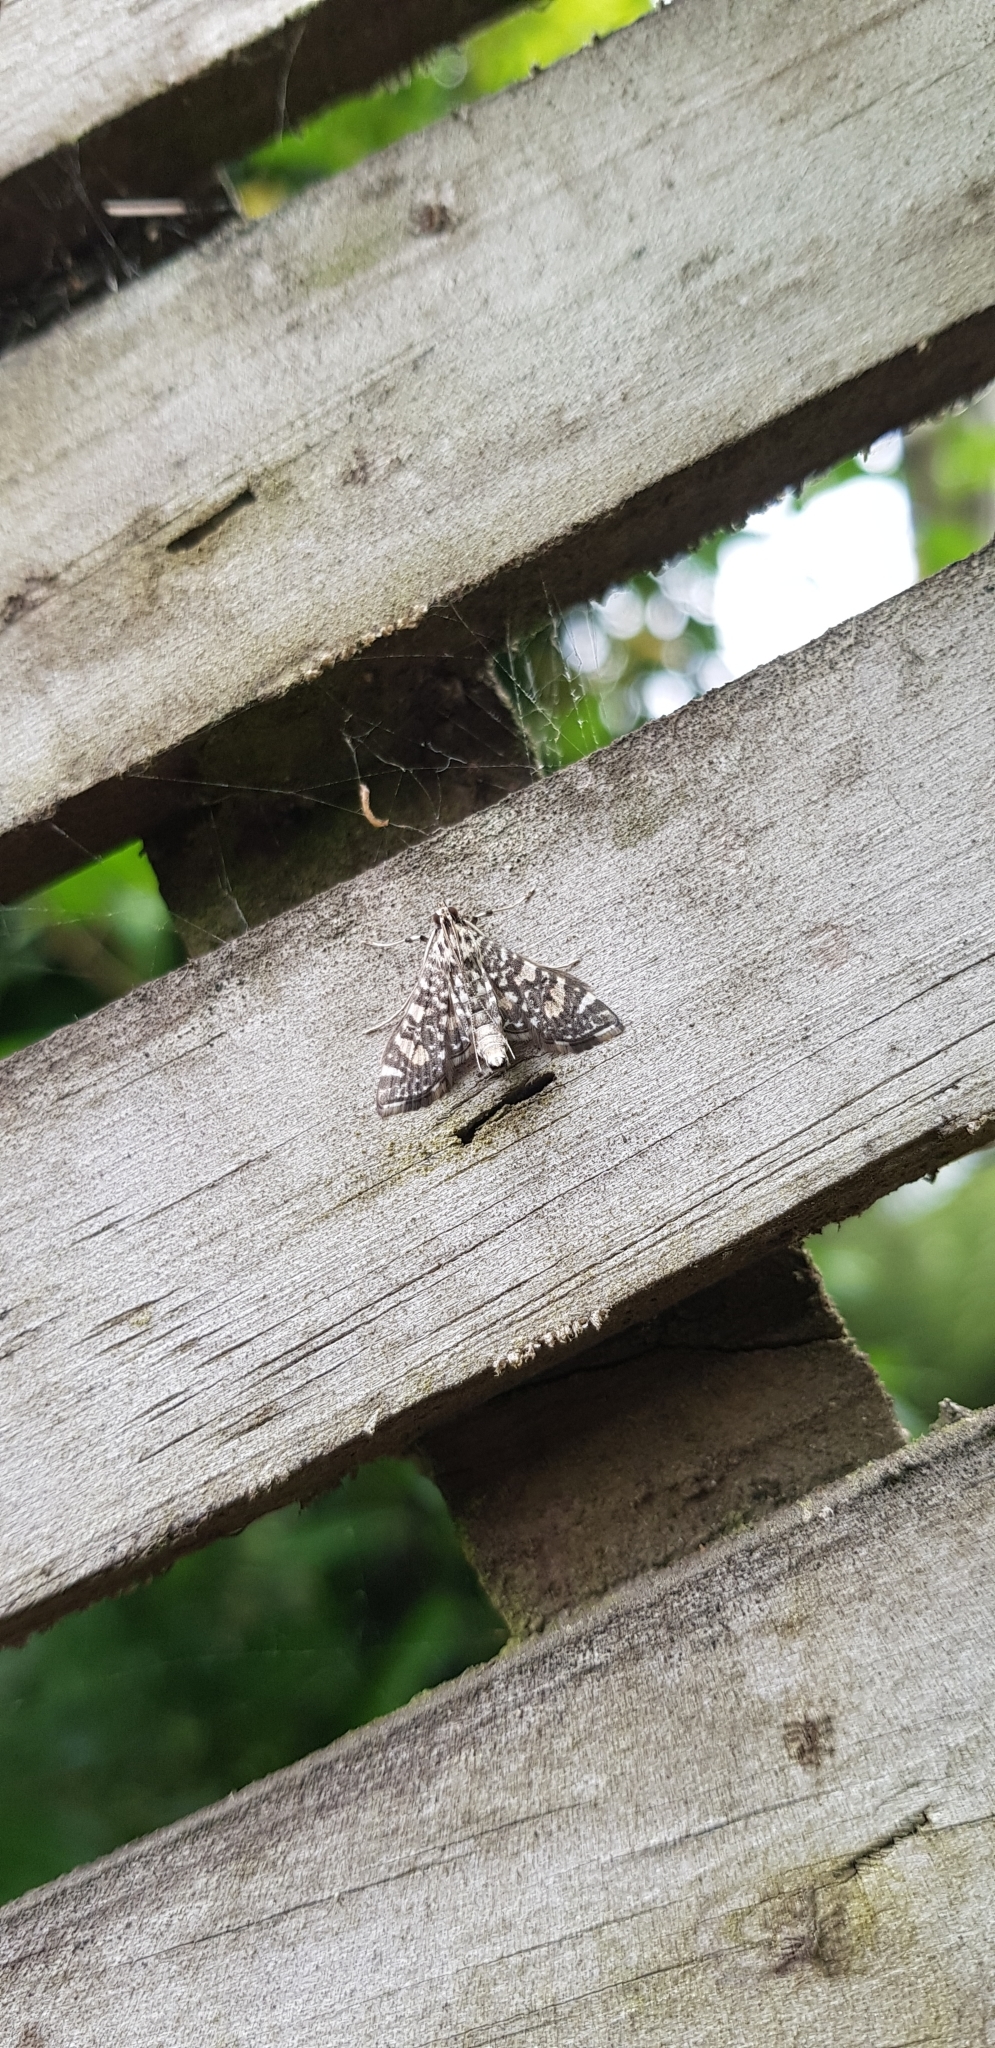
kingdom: Animalia
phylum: Arthropoda
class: Insecta
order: Lepidoptera
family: Crambidae
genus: Glyphodes
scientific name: Glyphodes onychinalis
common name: Swan plant moth
